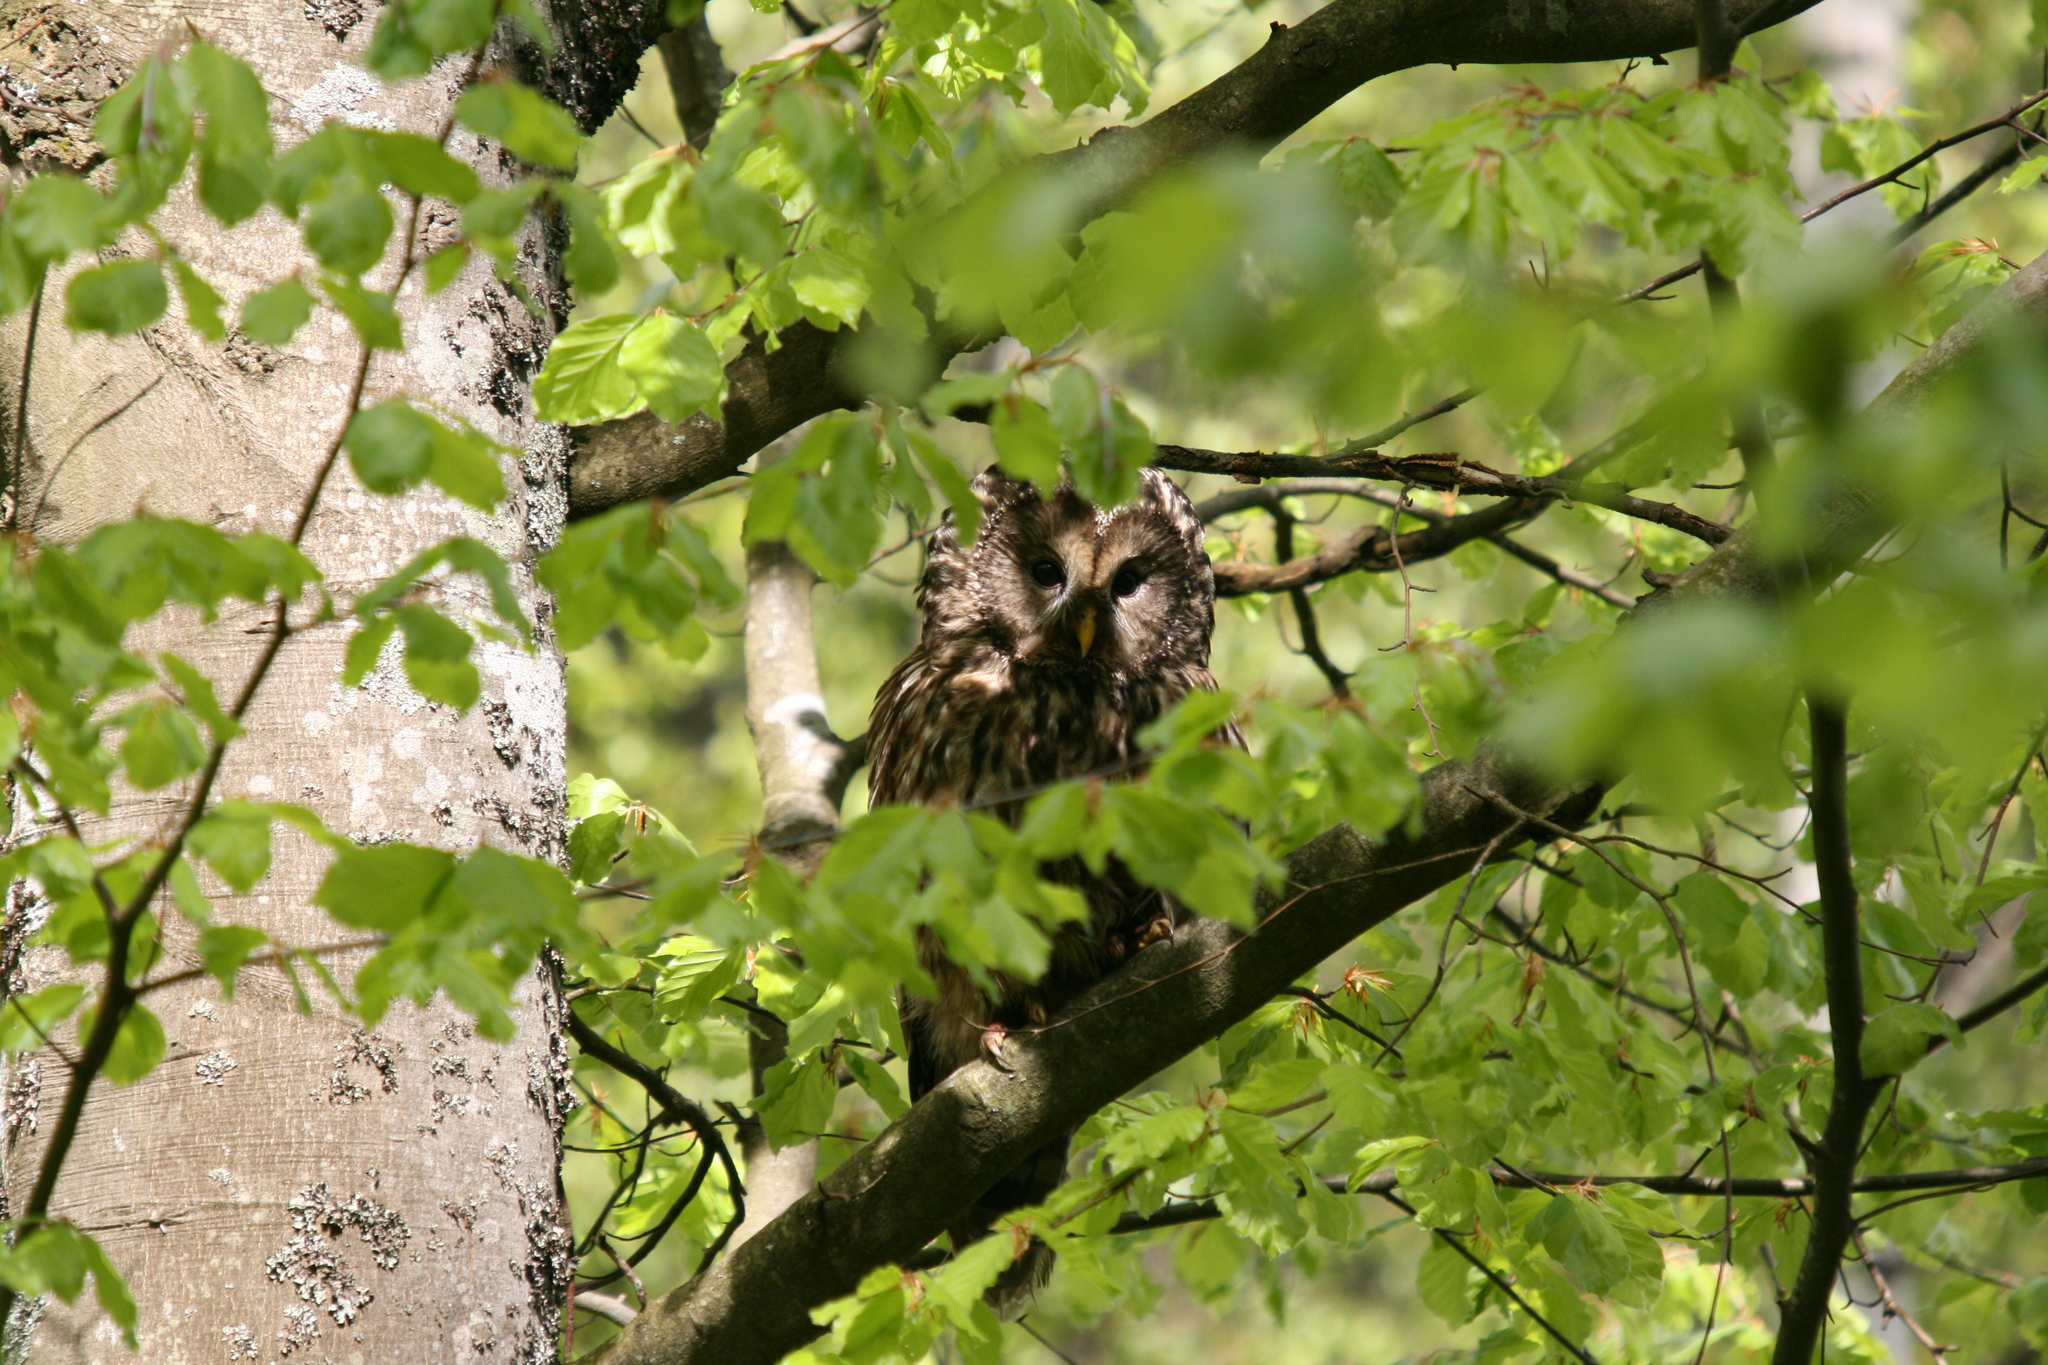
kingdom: Animalia
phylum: Chordata
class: Aves
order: Strigiformes
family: Strigidae
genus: Strix
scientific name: Strix uralensis
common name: Ural owl
